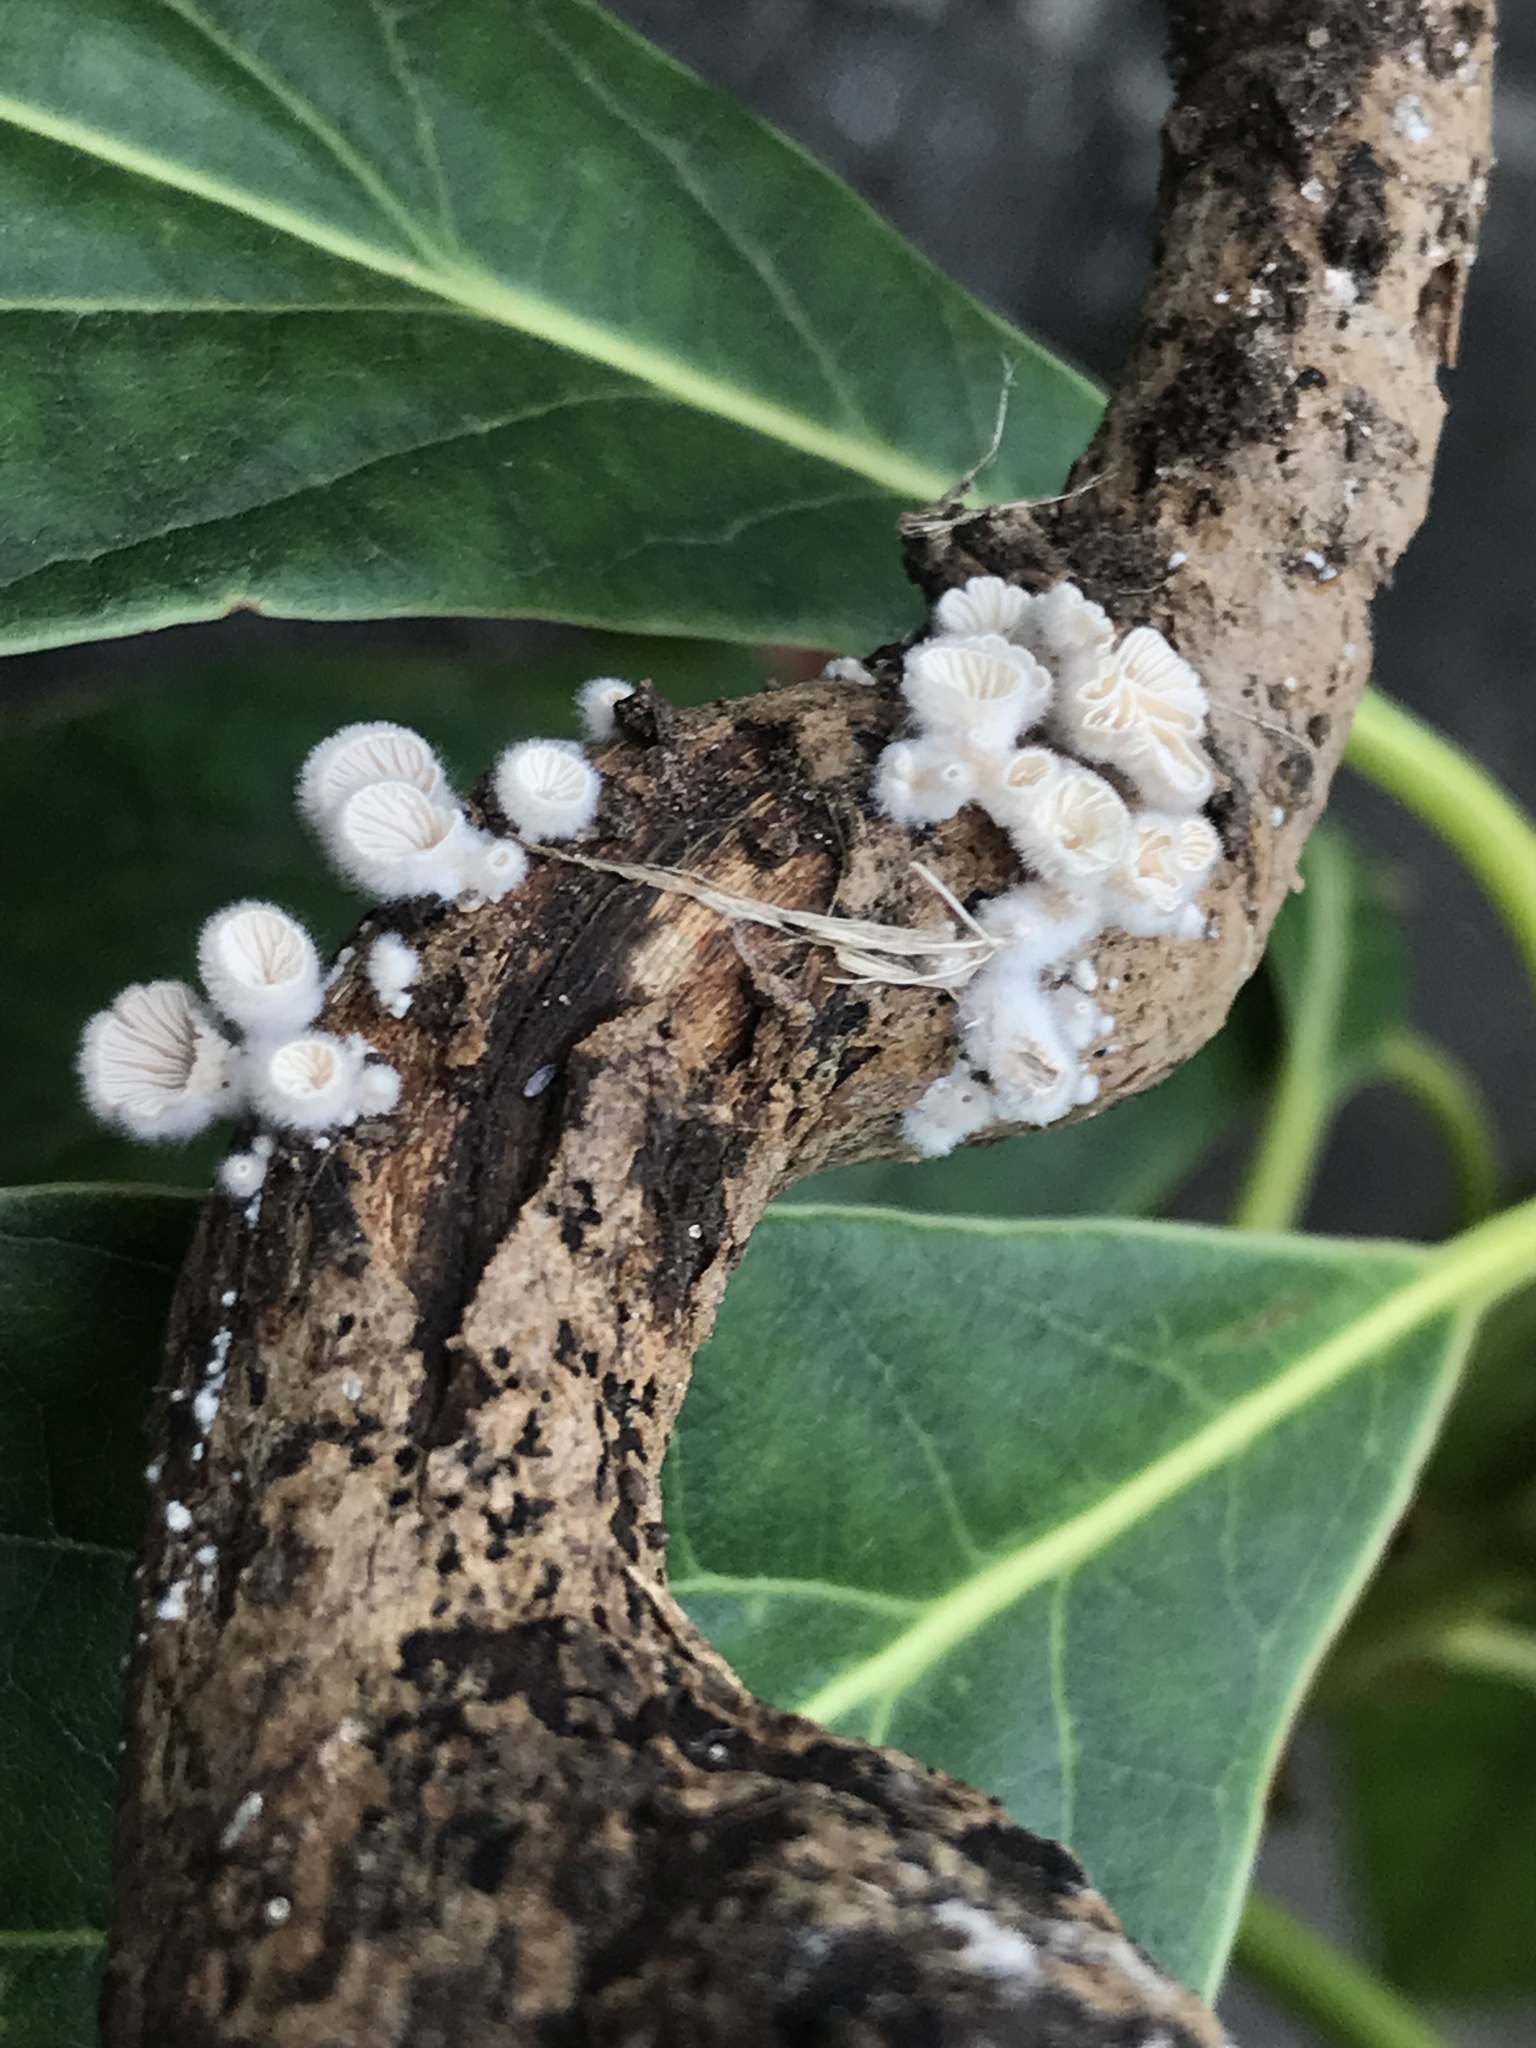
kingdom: Fungi
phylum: Basidiomycota
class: Agaricomycetes
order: Agaricales
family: Schizophyllaceae
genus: Schizophyllum
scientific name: Schizophyllum commune
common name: Common porecrust
